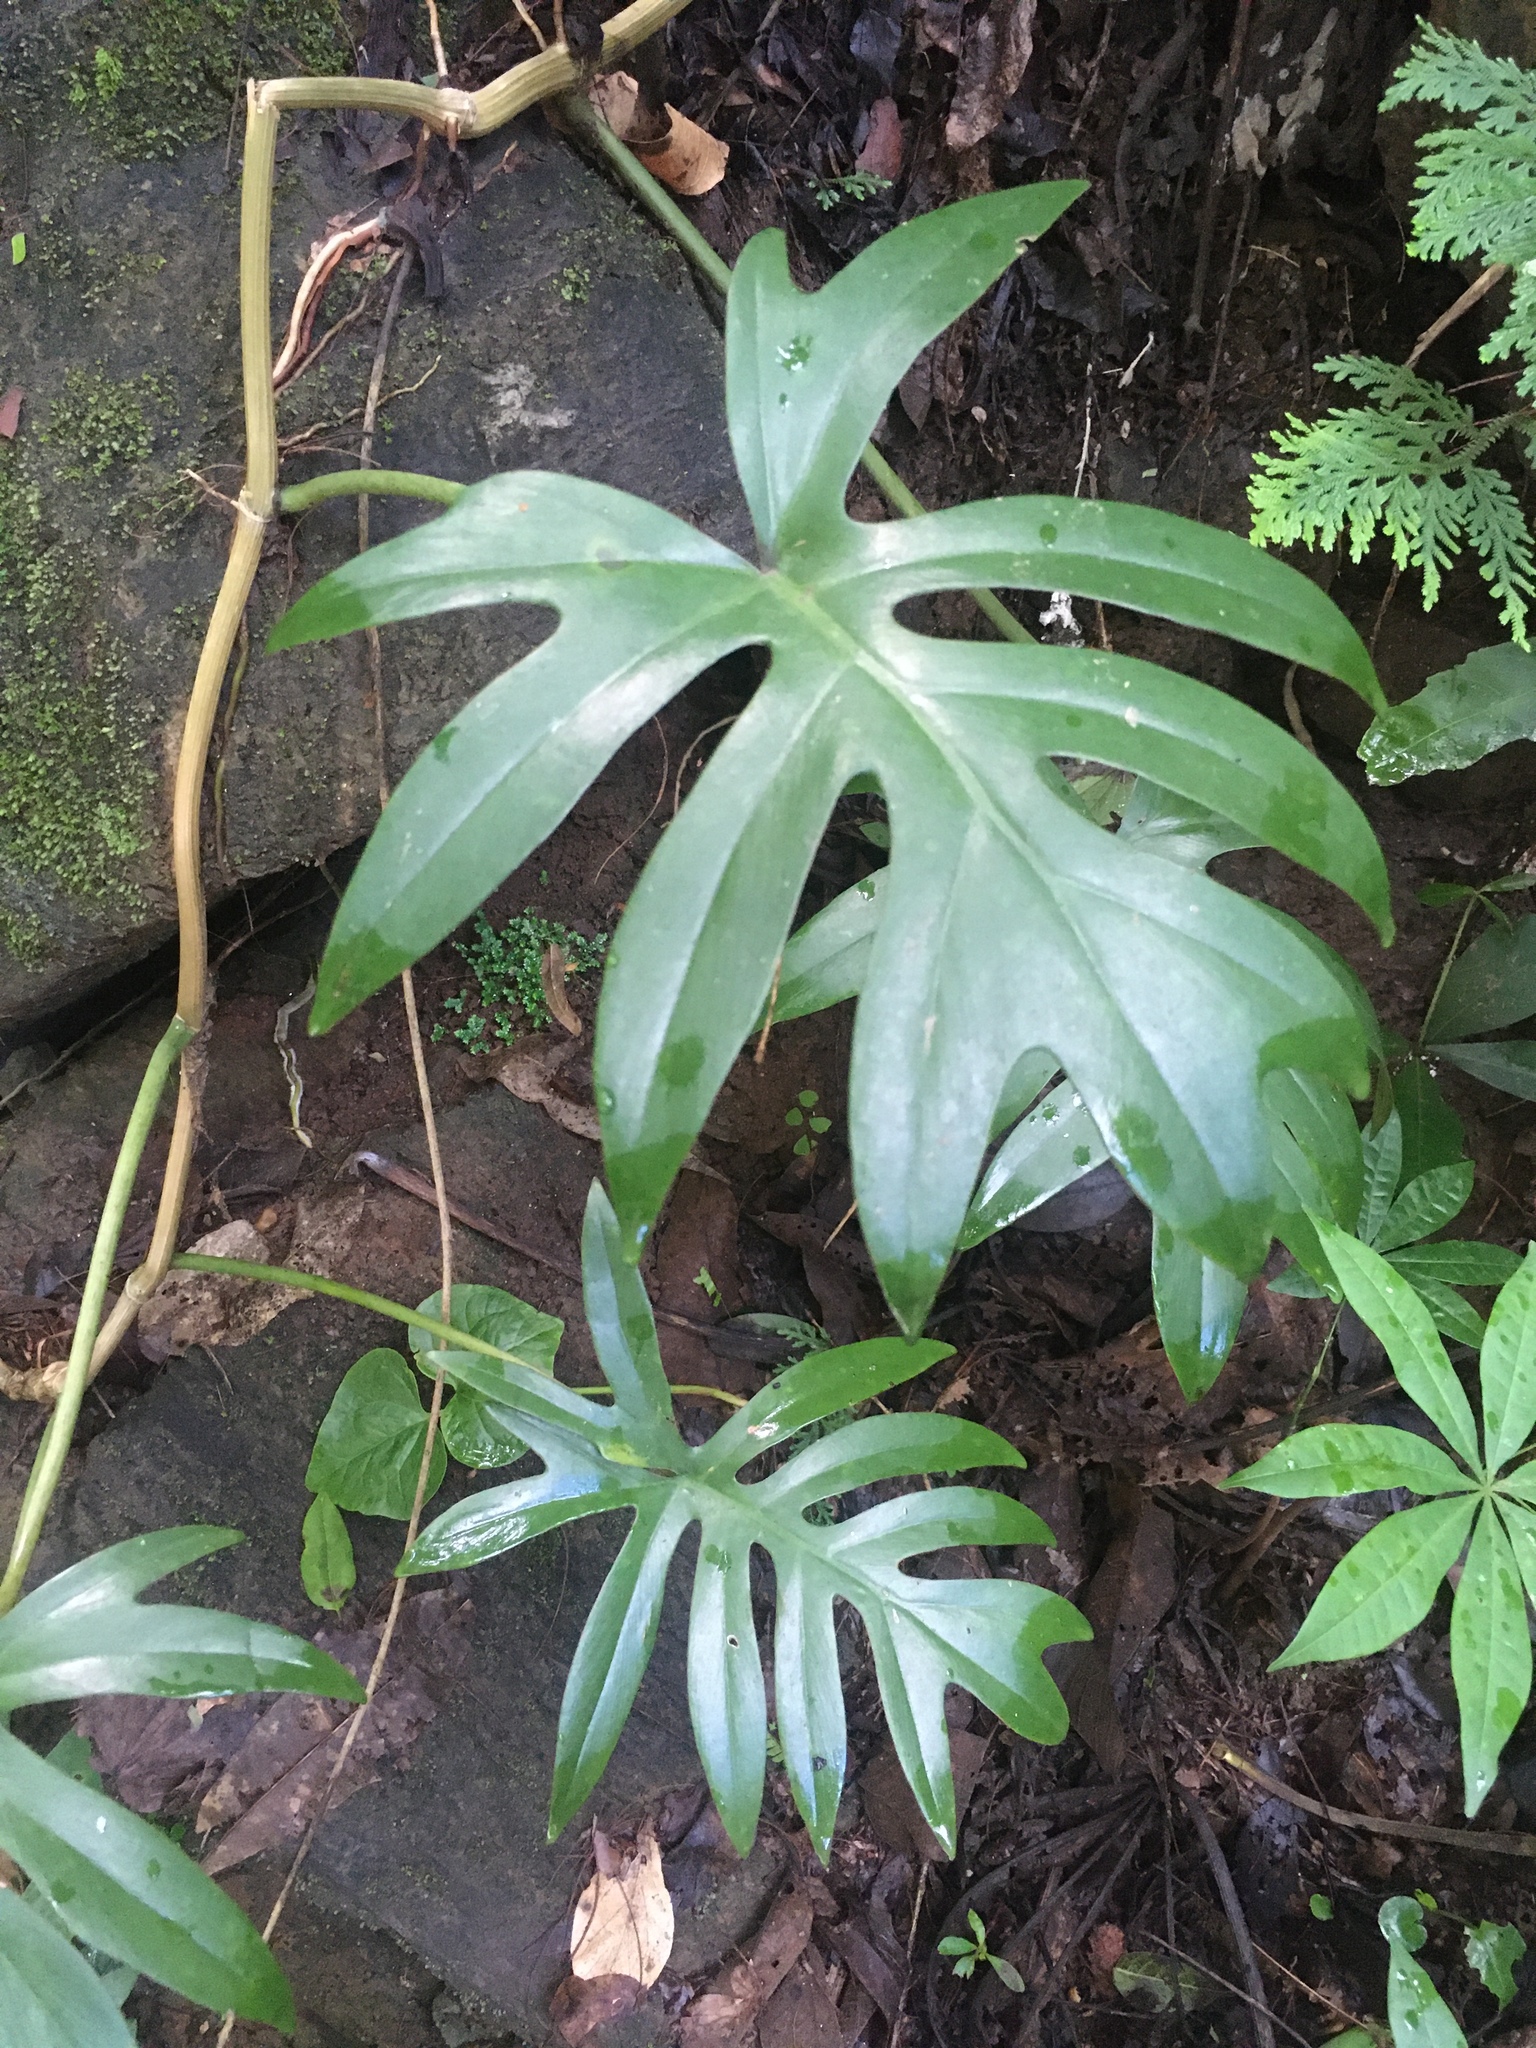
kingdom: Plantae
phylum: Tracheophyta
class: Liliopsida
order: Alismatales
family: Araceae
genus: Philodendron
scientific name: Philodendron mayoi
